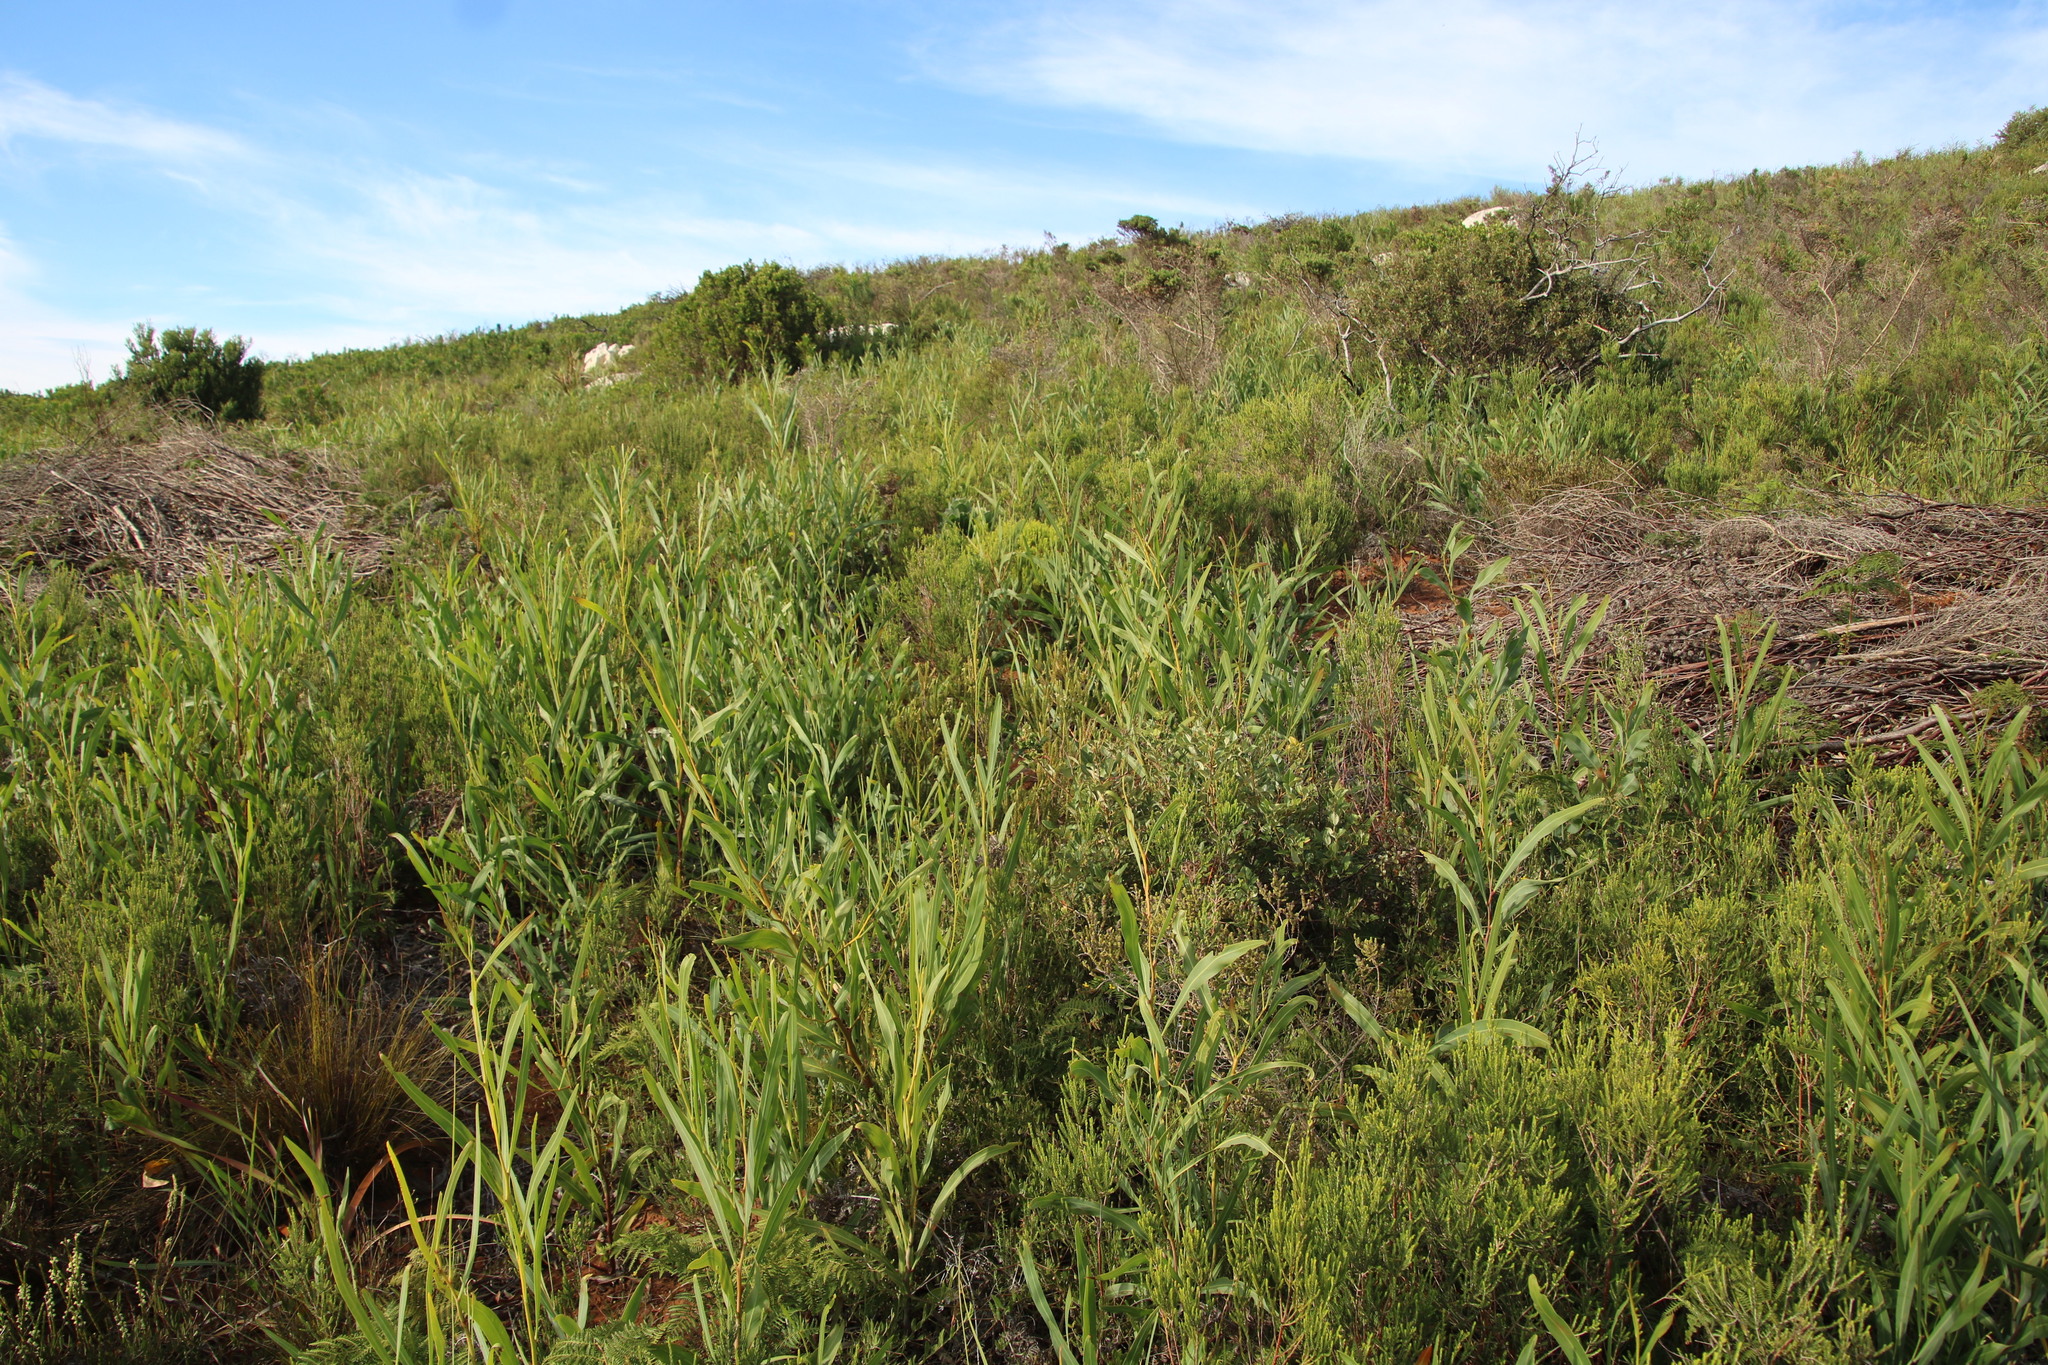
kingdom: Plantae
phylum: Tracheophyta
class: Magnoliopsida
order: Fabales
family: Fabaceae
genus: Acacia
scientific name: Acacia saligna
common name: Orange wattle
